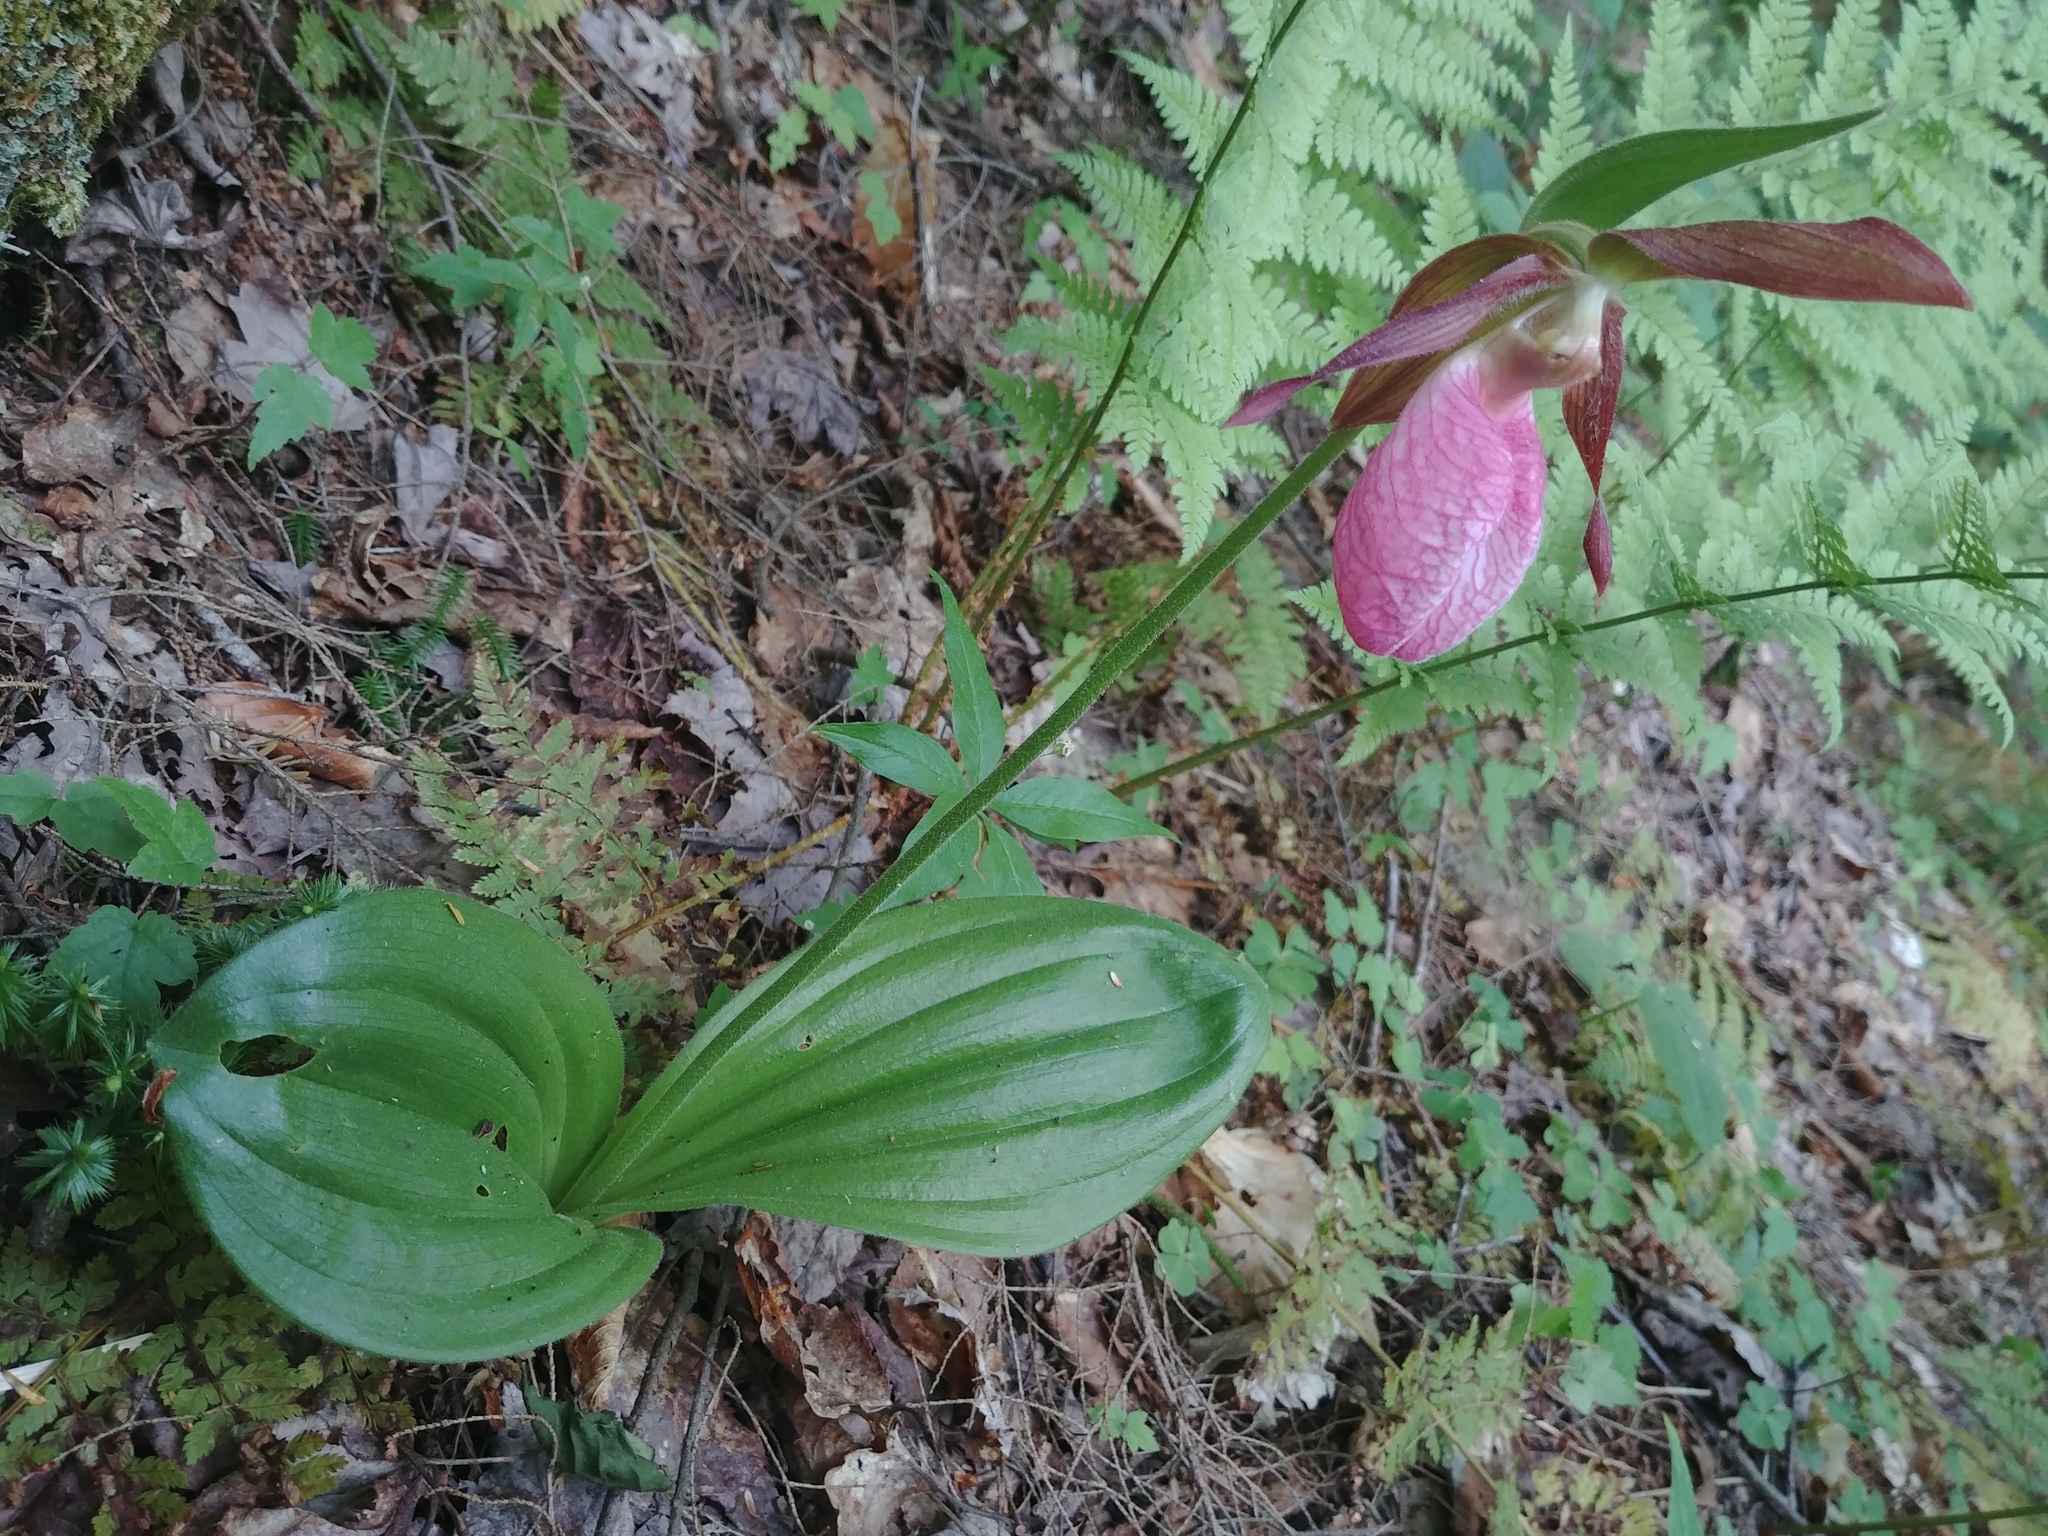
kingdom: Plantae
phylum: Tracheophyta
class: Liliopsida
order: Asparagales
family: Orchidaceae
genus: Cypripedium
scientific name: Cypripedium acaule
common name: Pink lady's-slipper
